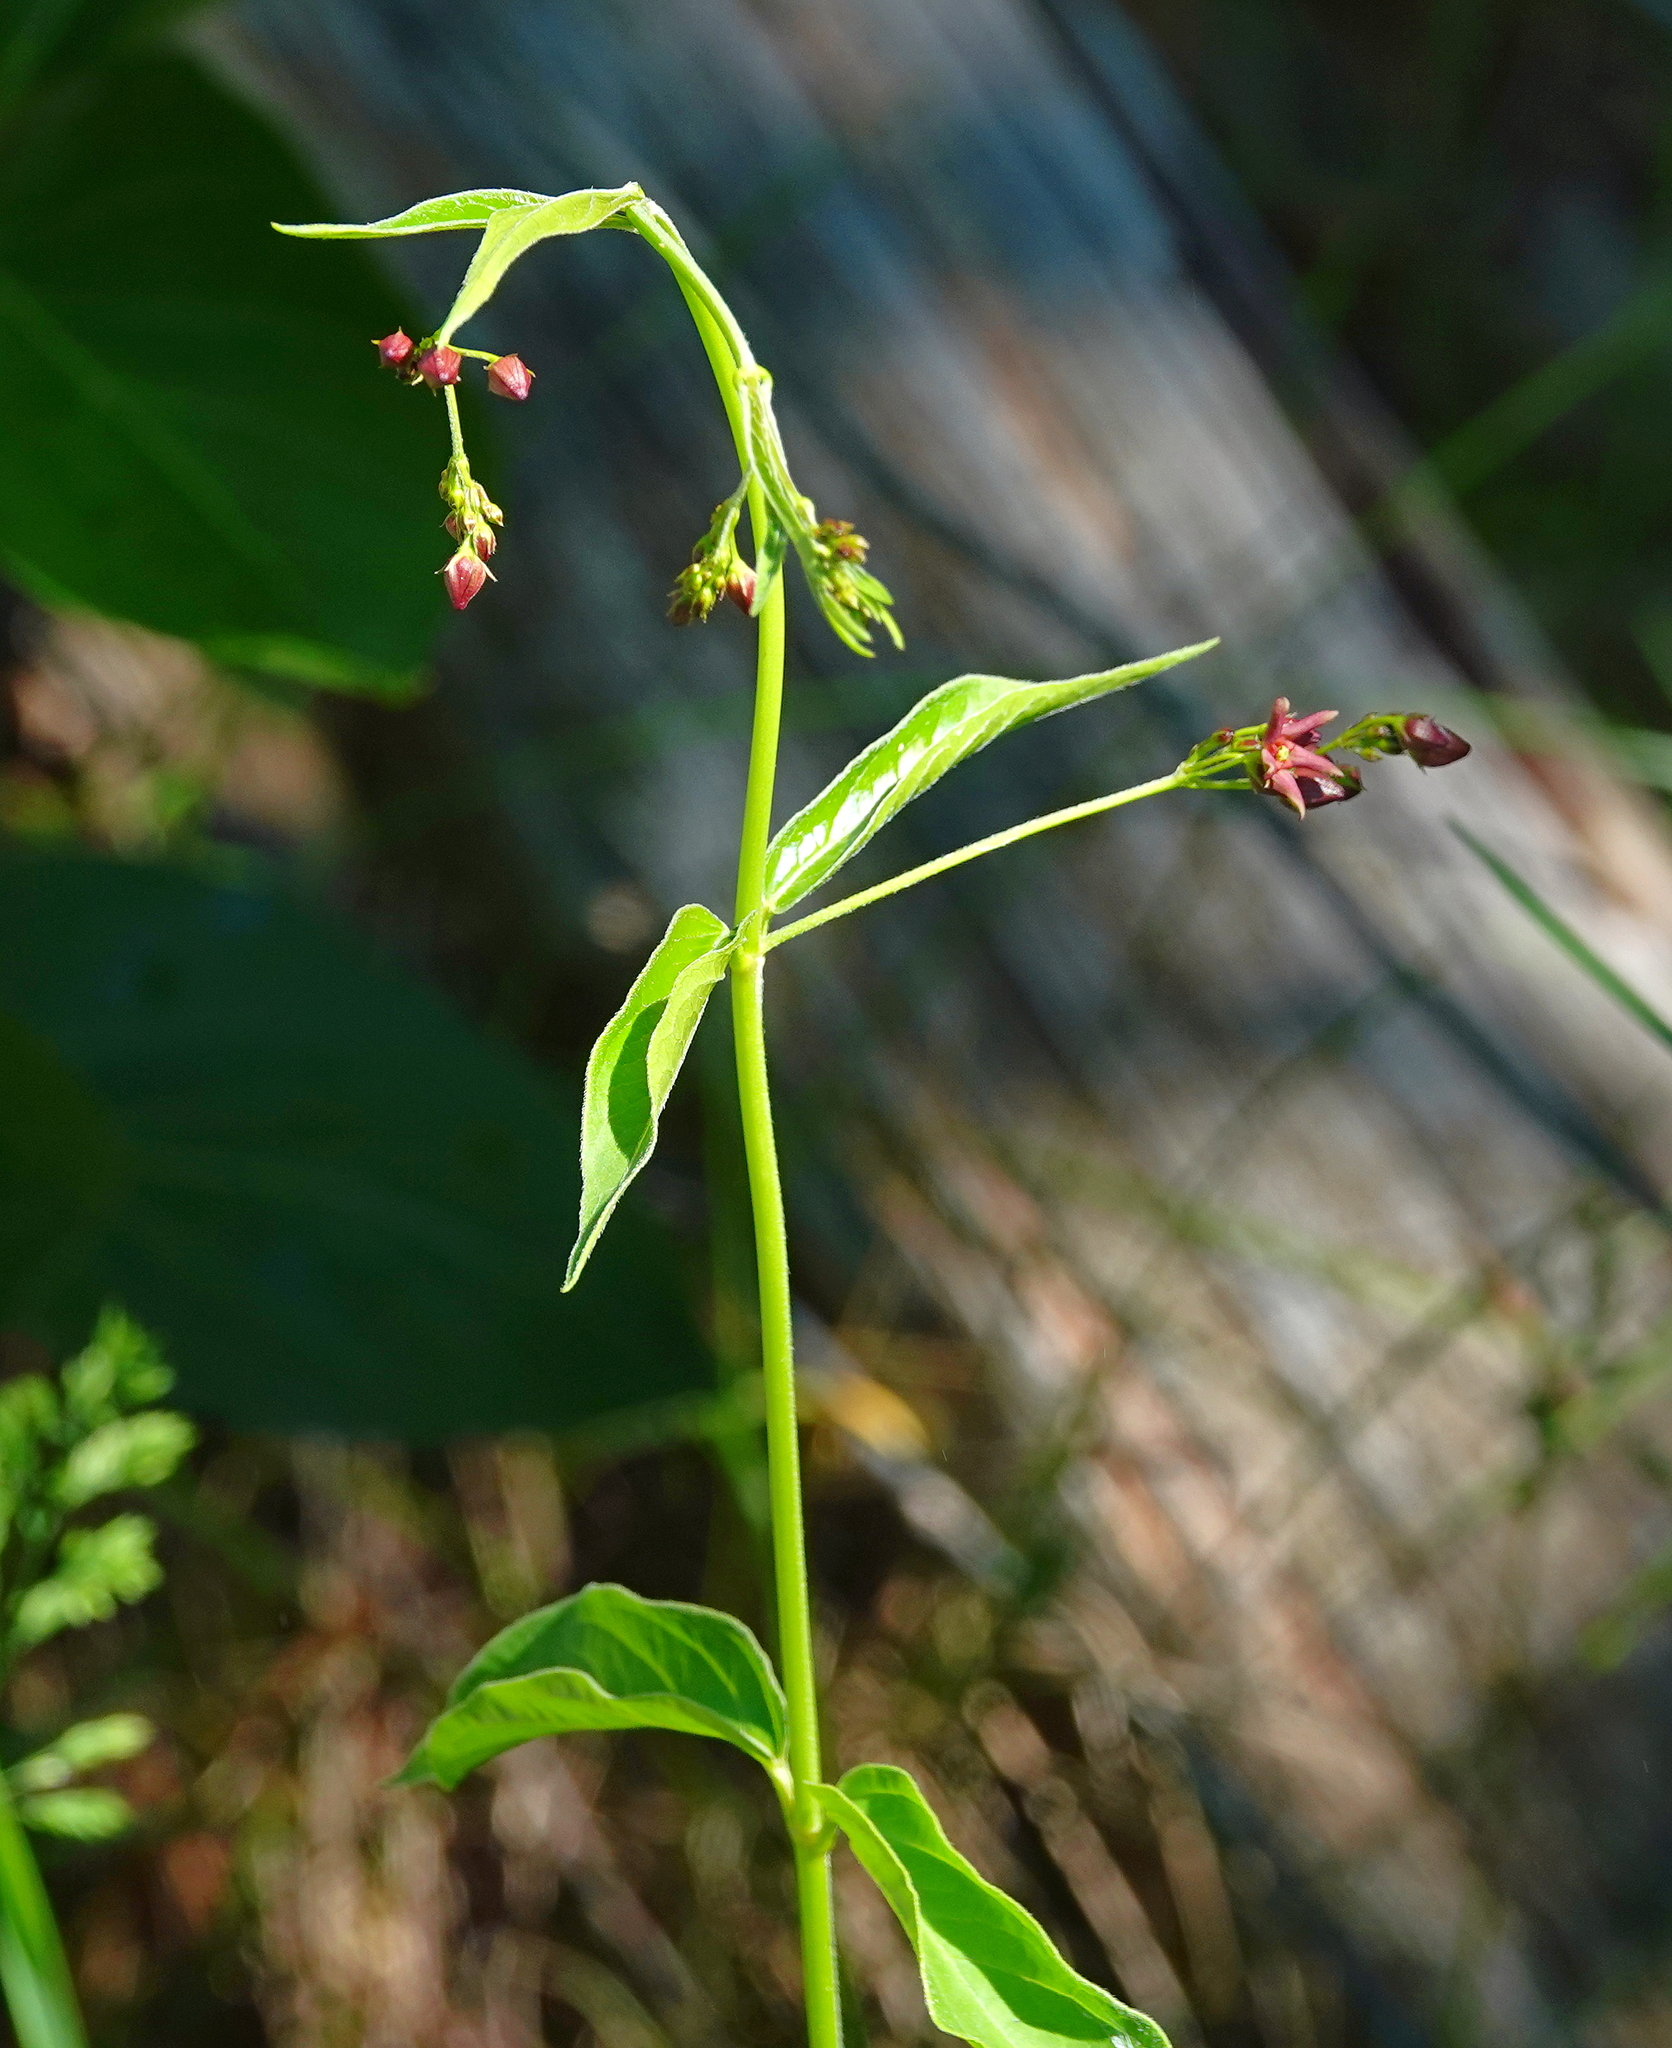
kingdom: Plantae
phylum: Tracheophyta
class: Magnoliopsida
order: Gentianales
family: Apocynaceae
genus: Vincetoxicum
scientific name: Vincetoxicum rossicum
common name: Dog-strangling vine
